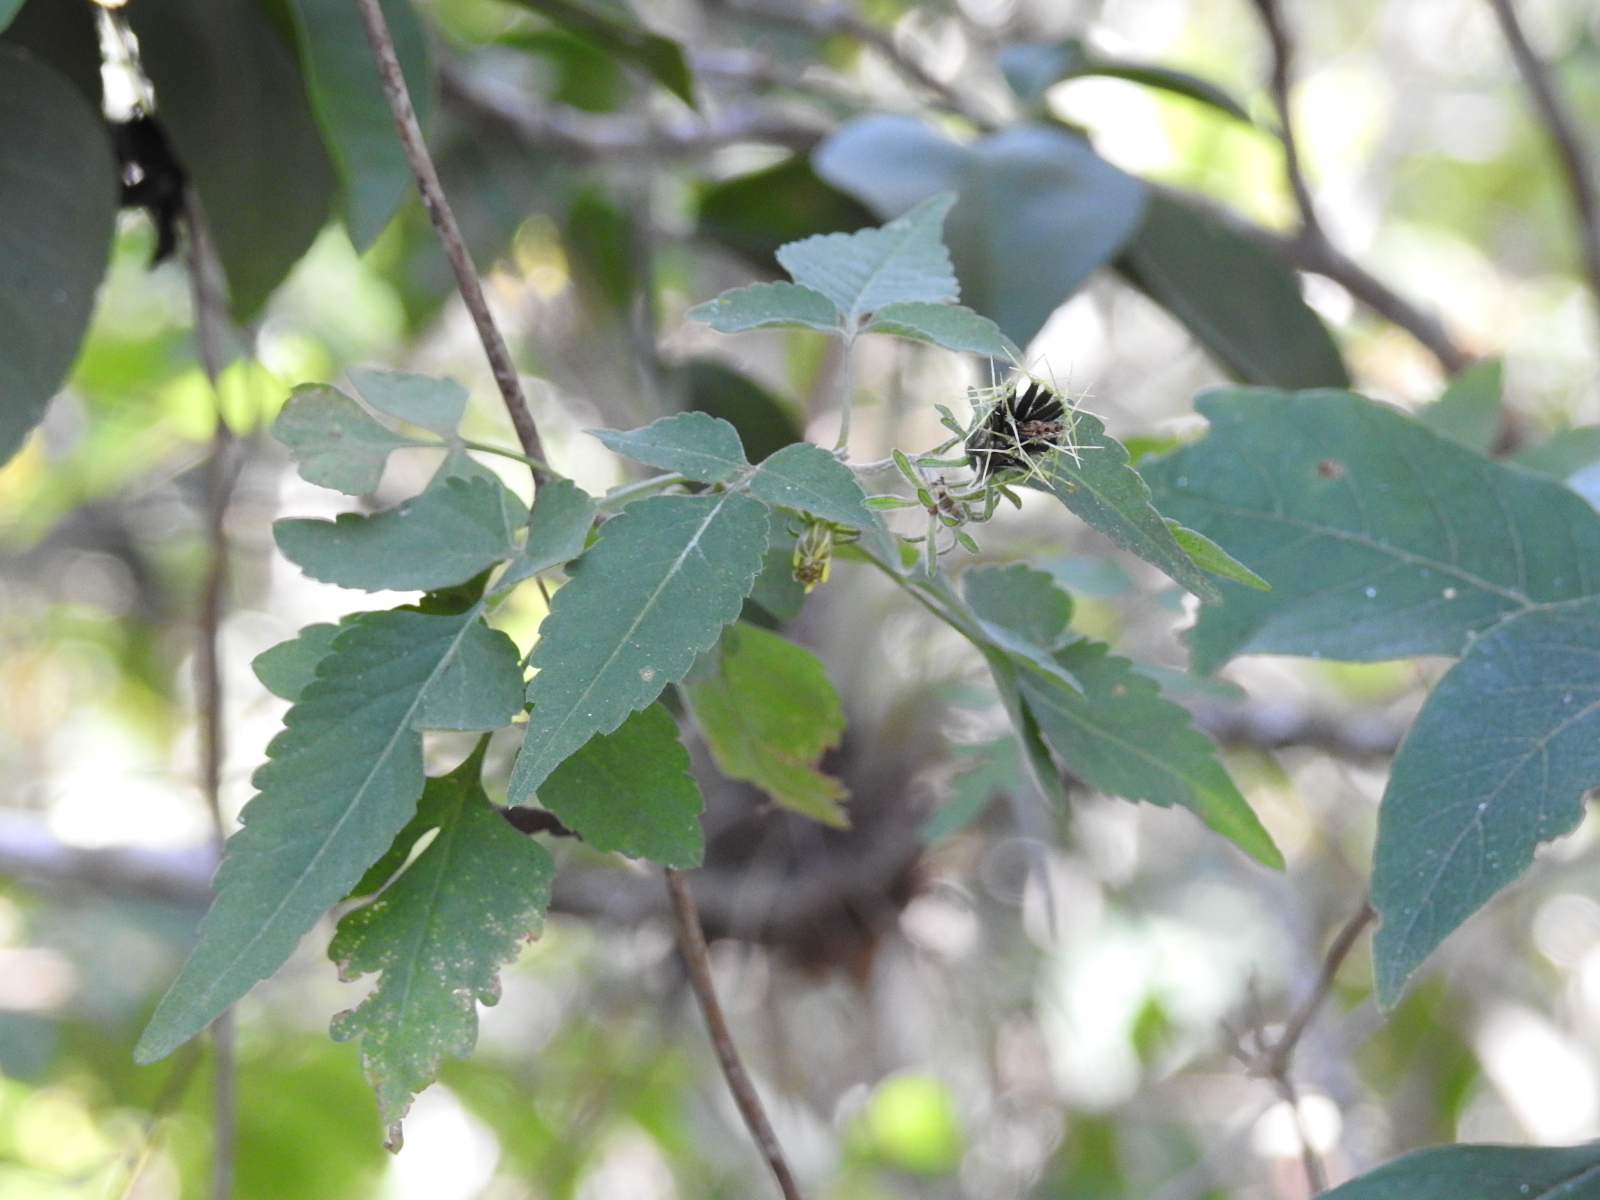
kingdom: Plantae
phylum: Tracheophyta
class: Magnoliopsida
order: Asterales
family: Asteraceae
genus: Bidens
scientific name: Bidens reptans
